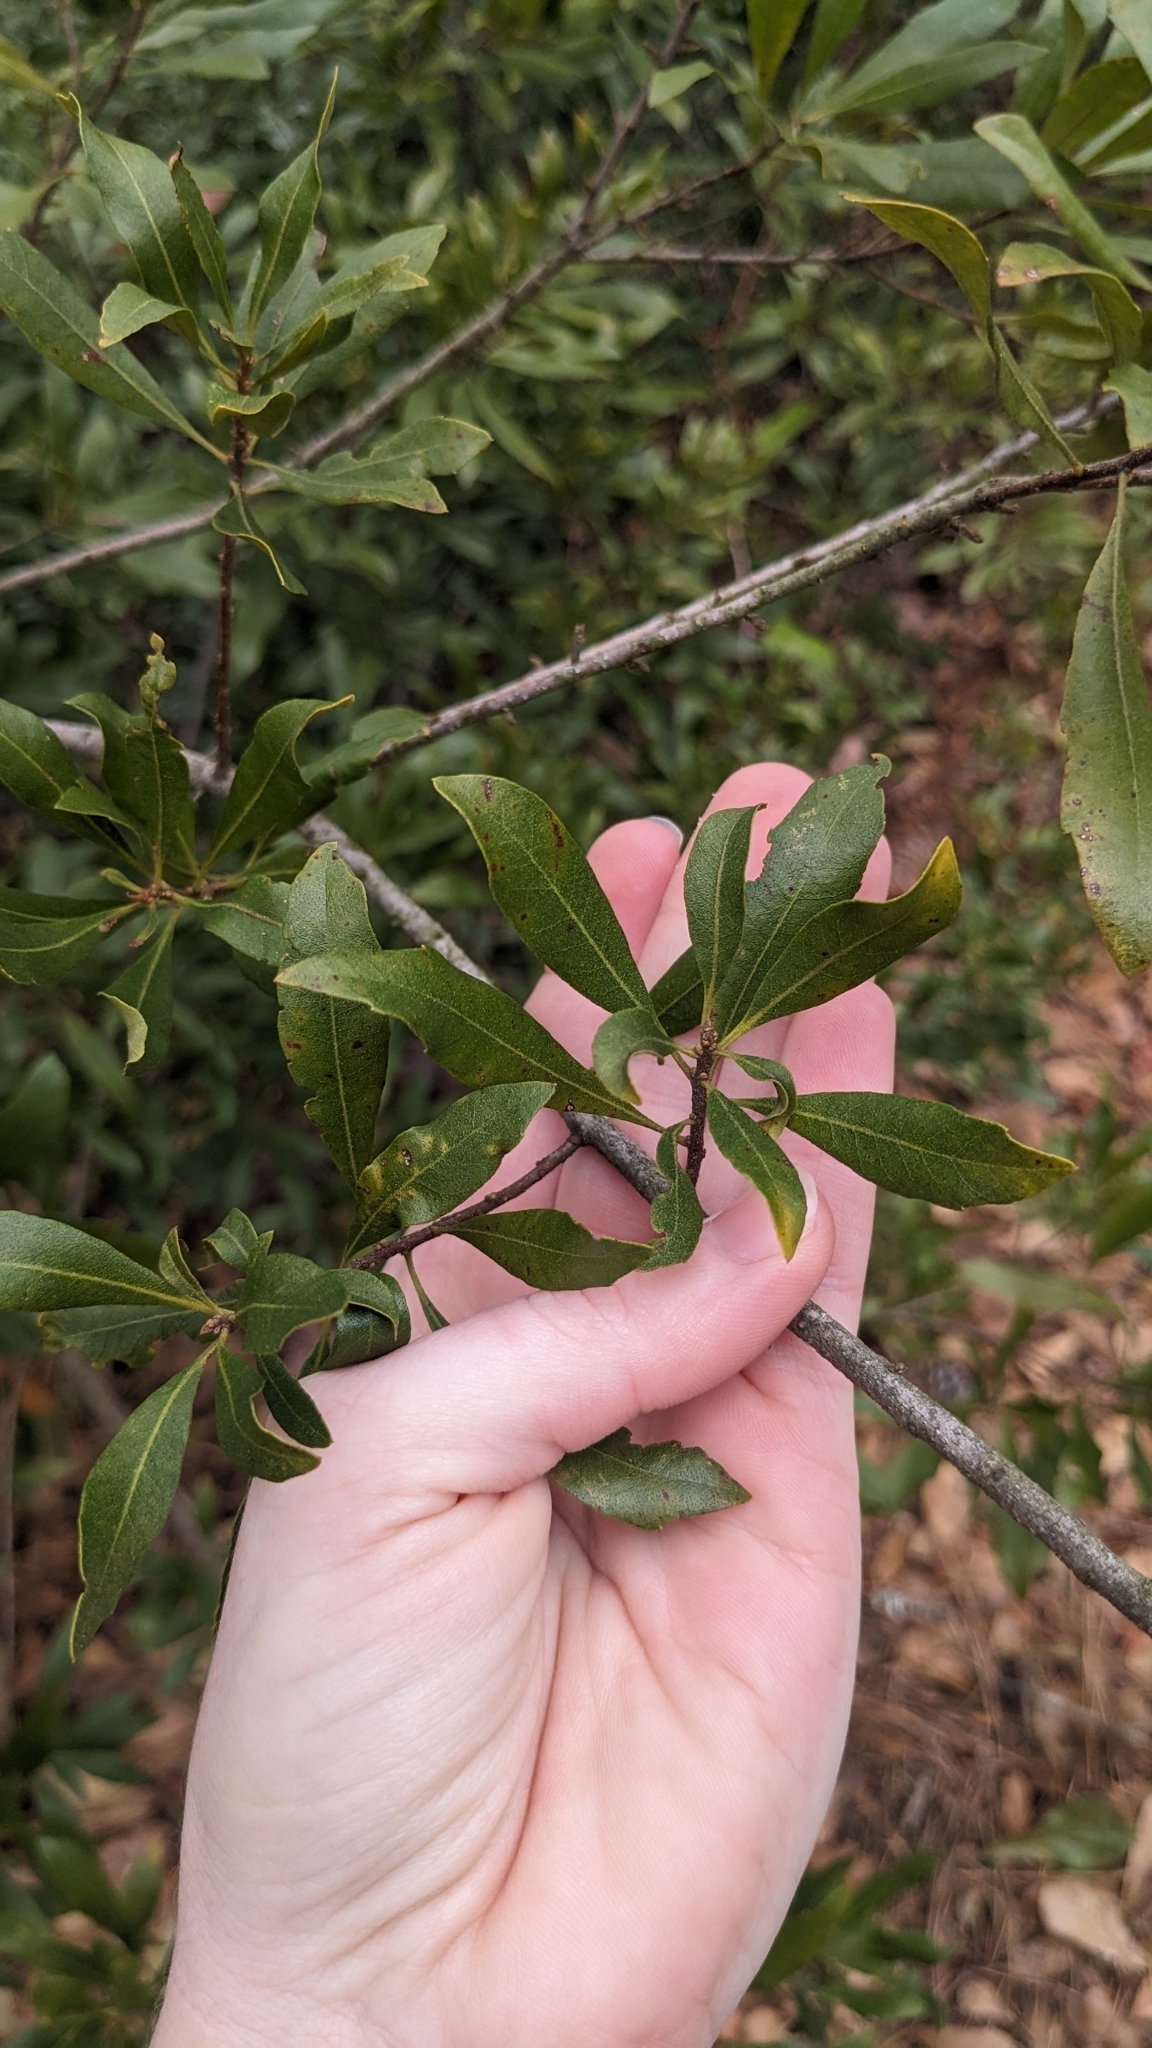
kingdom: Plantae
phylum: Tracheophyta
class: Magnoliopsida
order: Fagales
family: Myricaceae
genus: Morella
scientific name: Morella cerifera
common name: Wax myrtle
